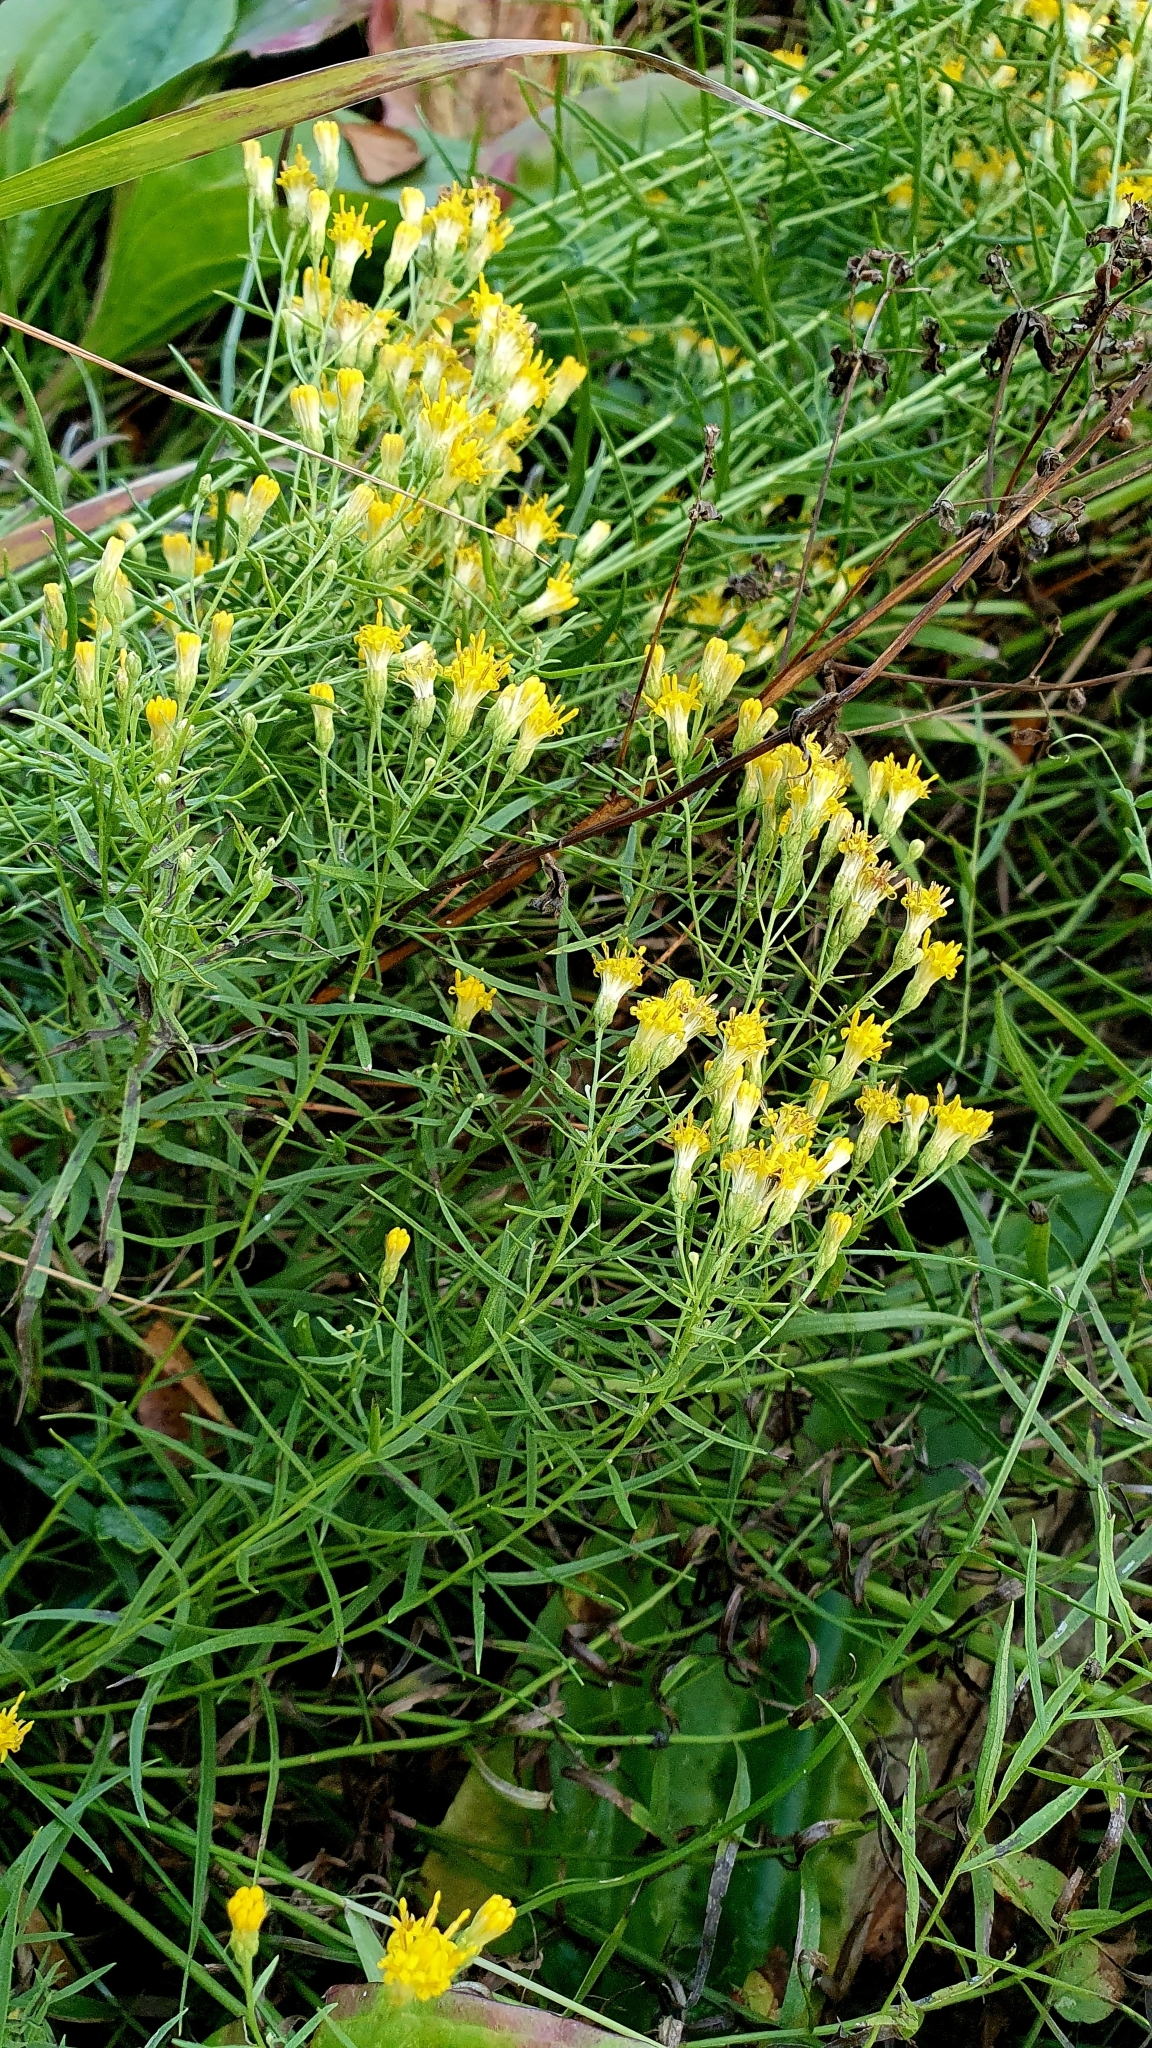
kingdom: Plantae
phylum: Tracheophyta
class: Magnoliopsida
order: Asterales
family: Asteraceae
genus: Galatella
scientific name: Galatella biflora
